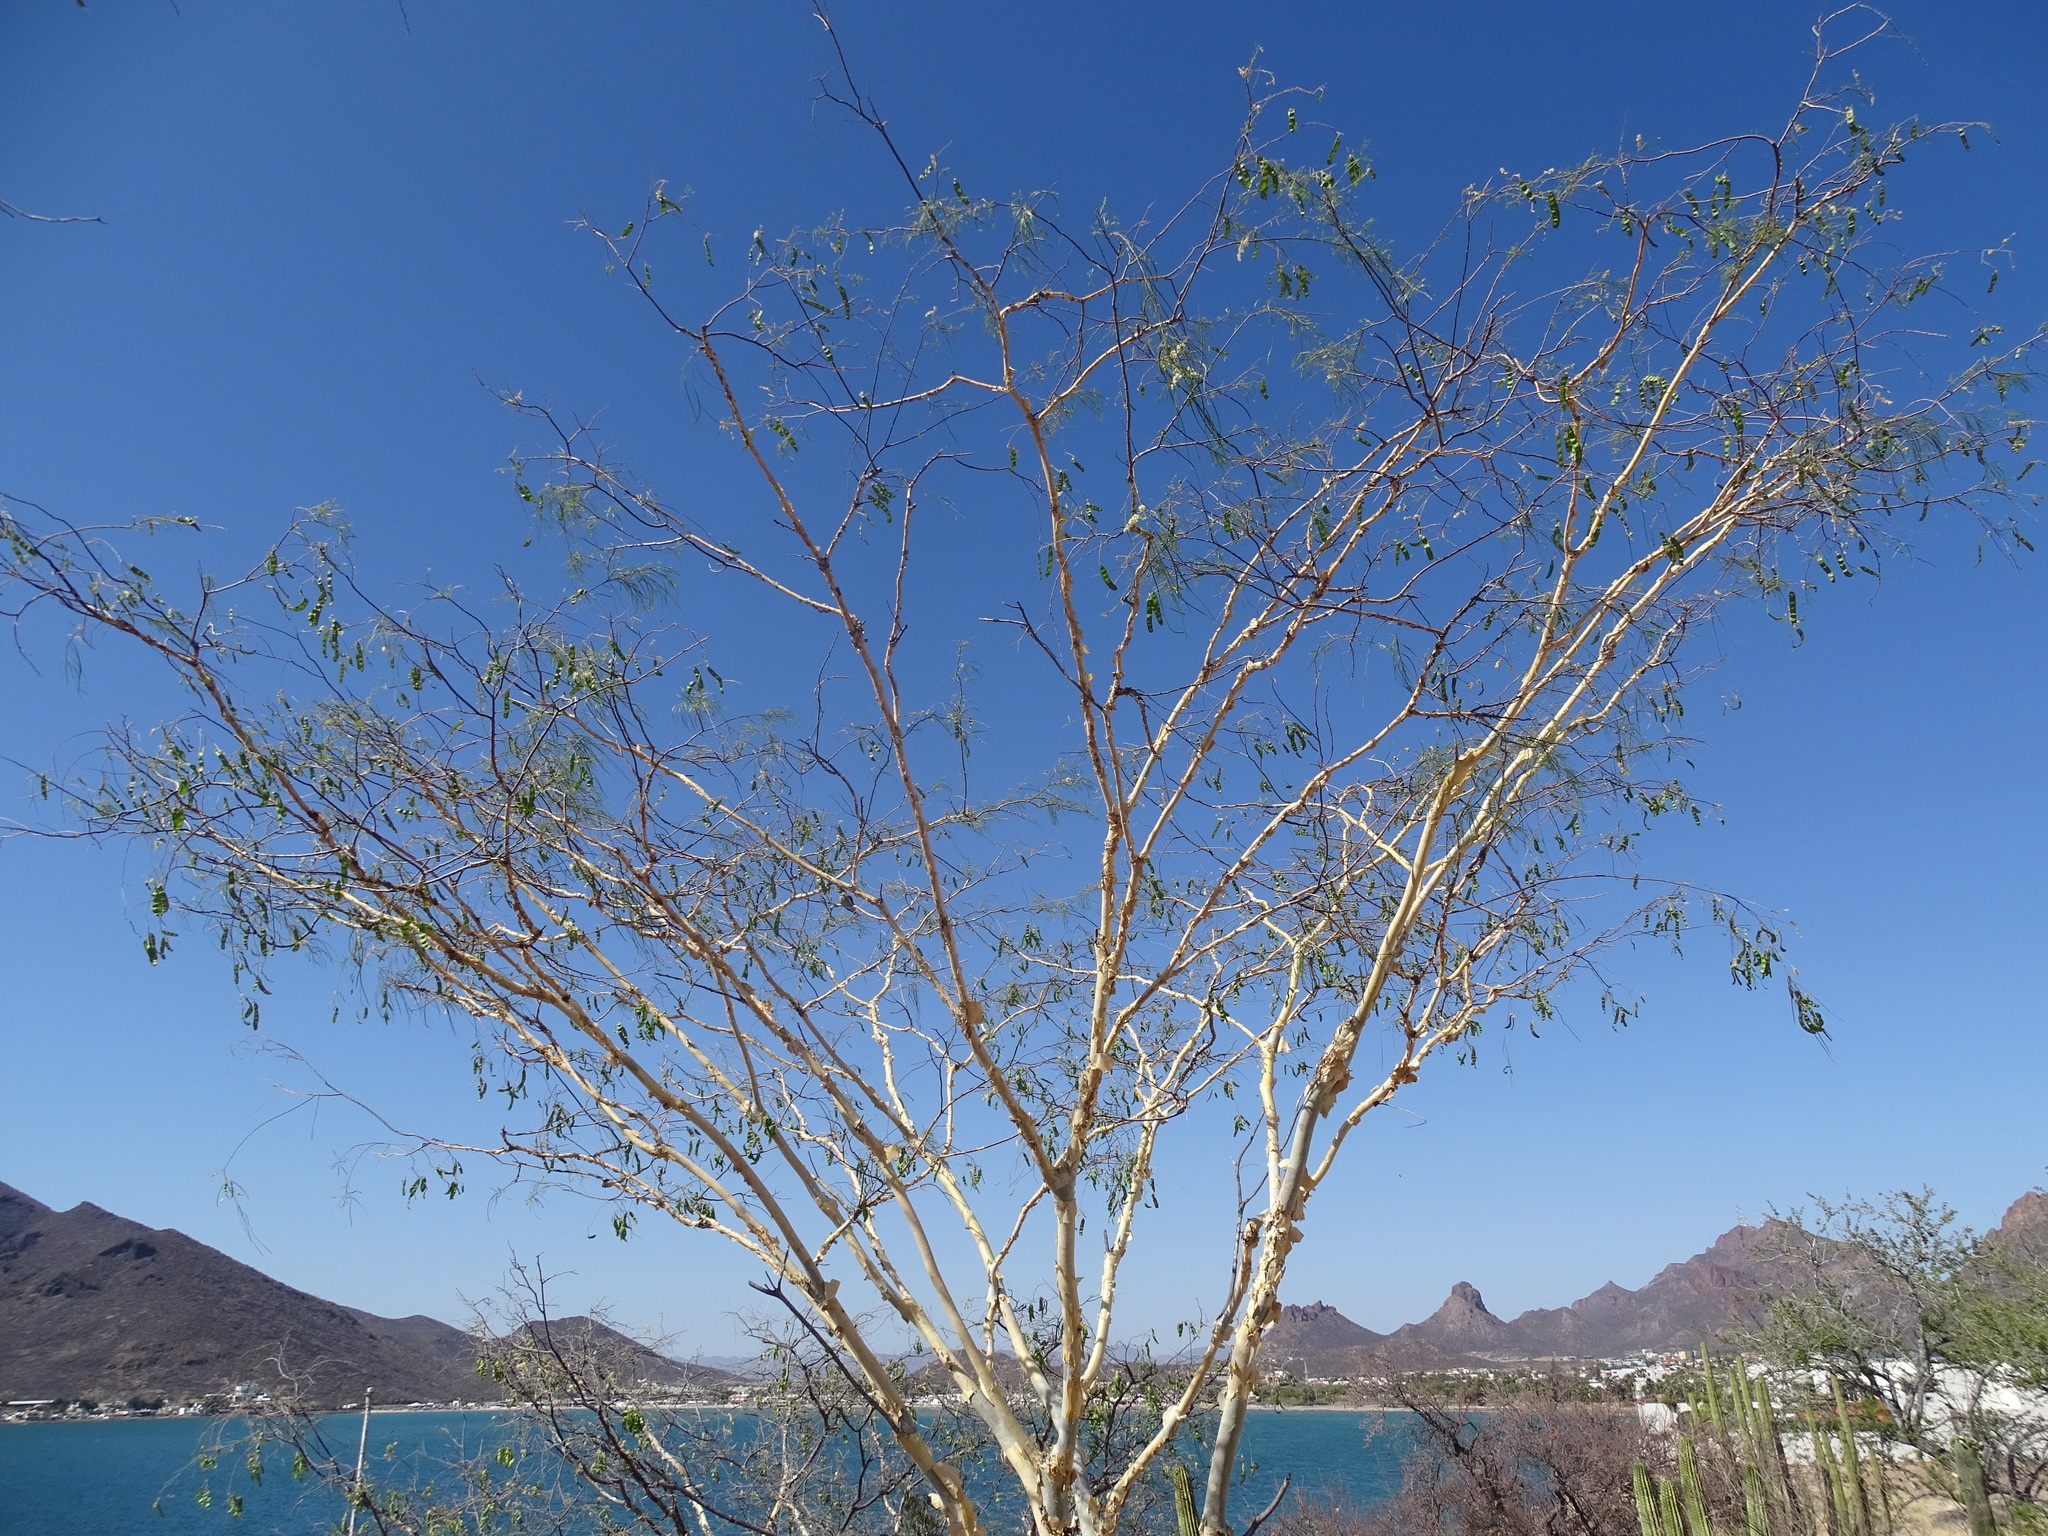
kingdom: Plantae
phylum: Tracheophyta
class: Magnoliopsida
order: Fabales
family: Fabaceae
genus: Mariosousa
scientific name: Mariosousa heterophylla
